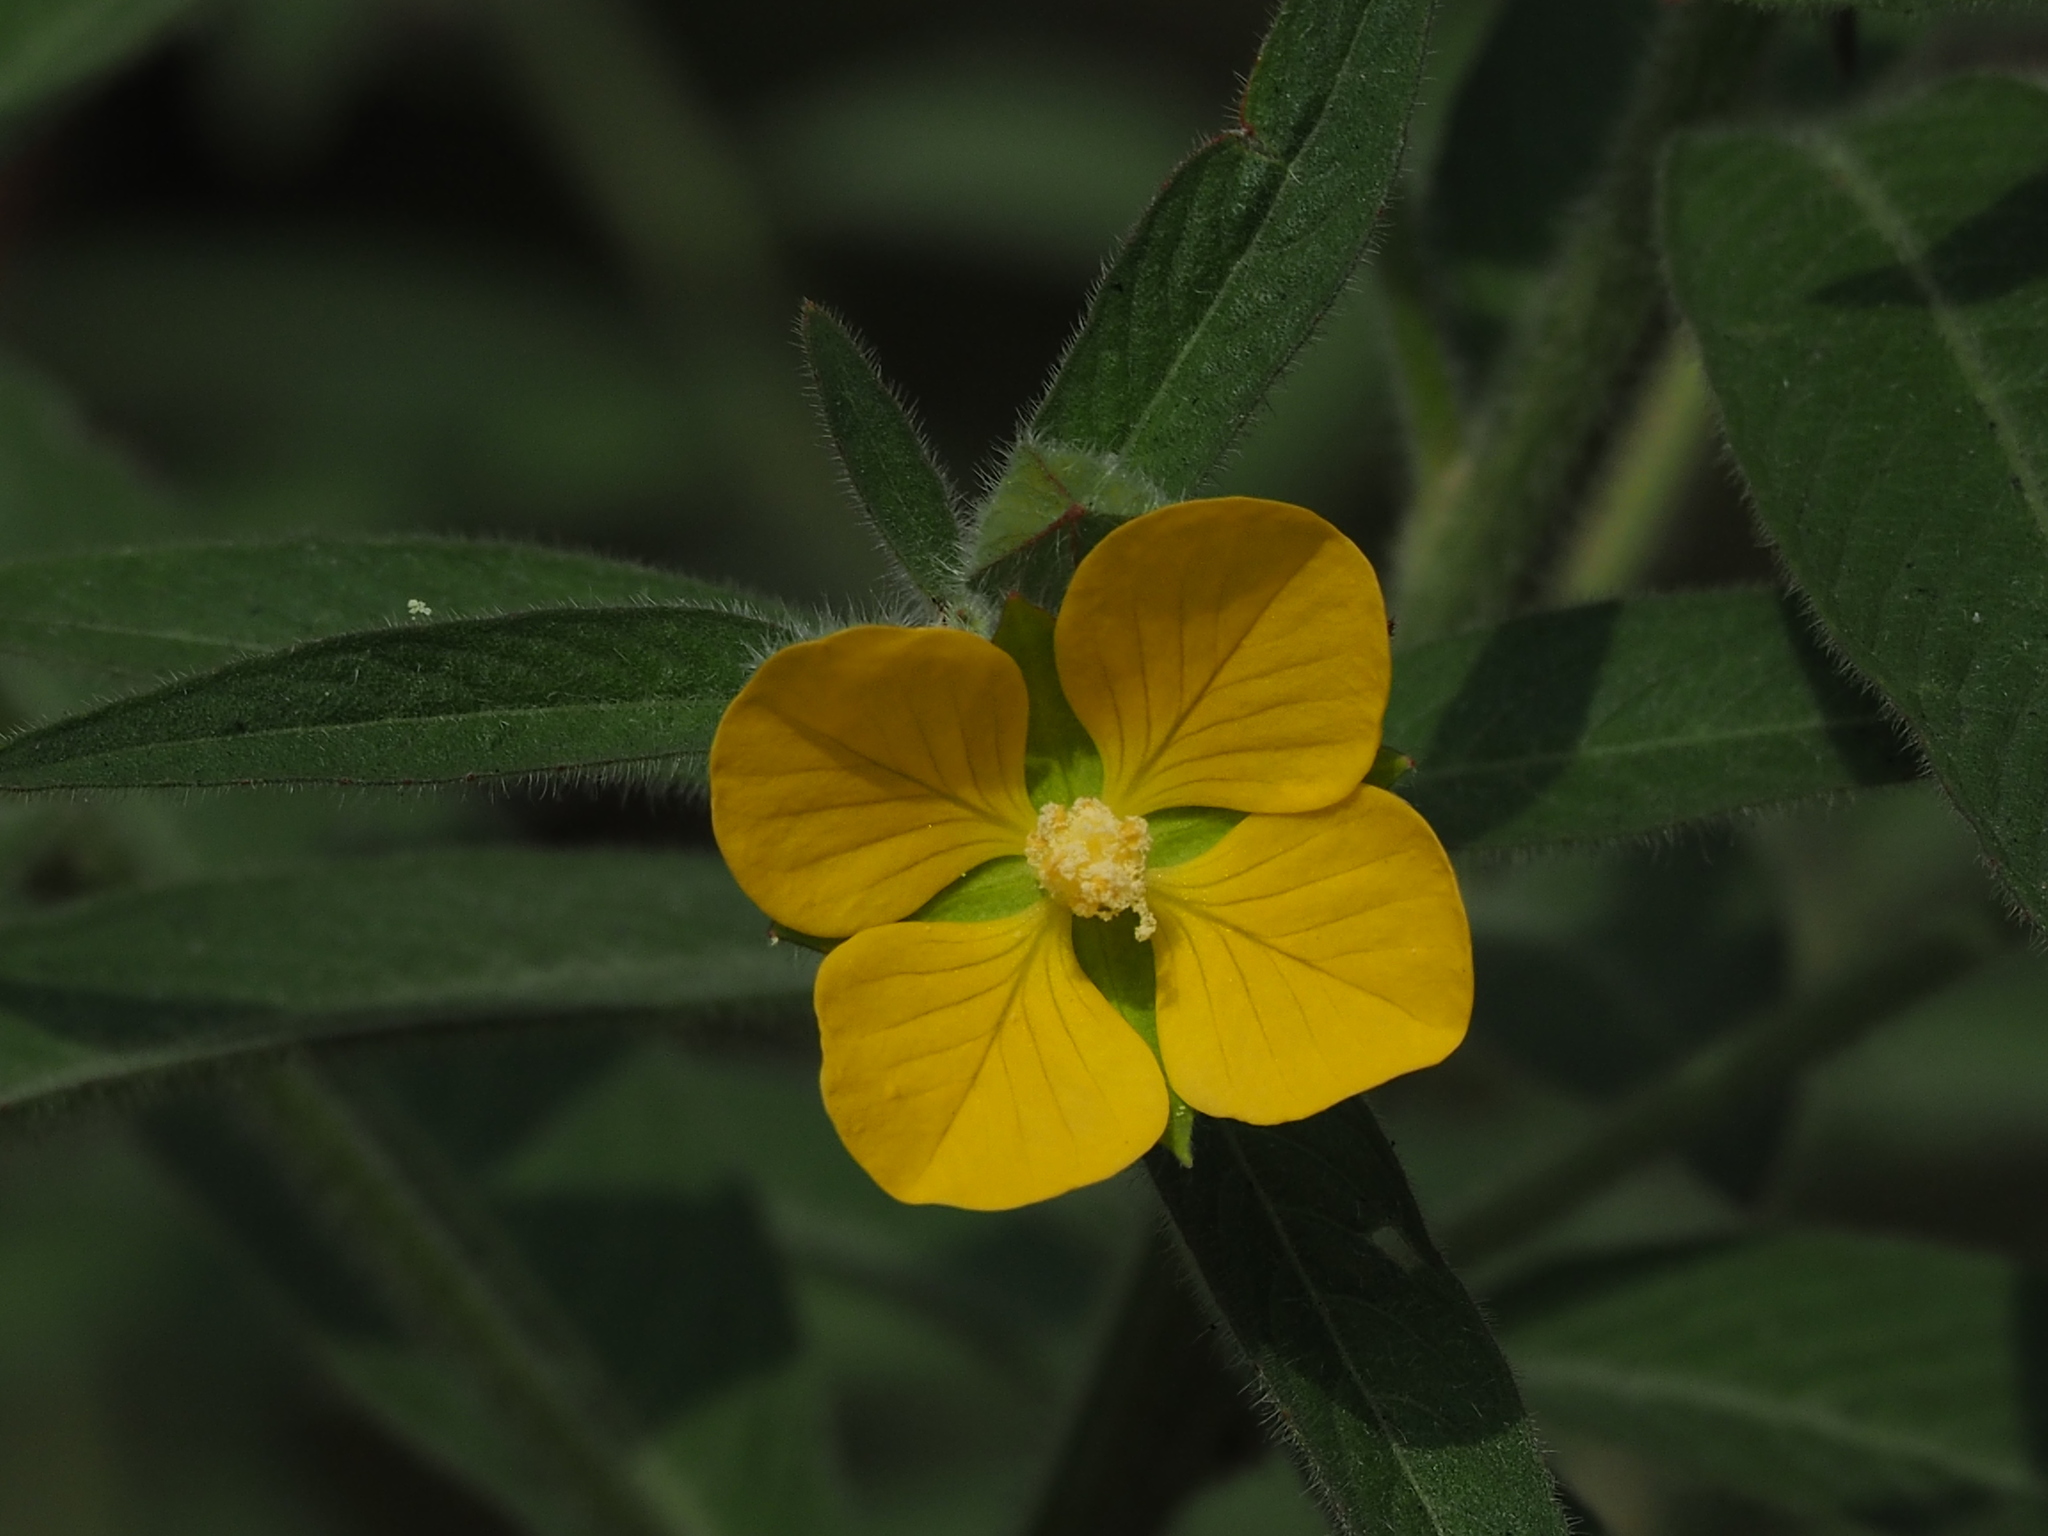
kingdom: Plantae
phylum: Tracheophyta
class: Magnoliopsida
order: Myrtales
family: Onagraceae
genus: Ludwigia
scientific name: Ludwigia octovalvis
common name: Water-primrose
